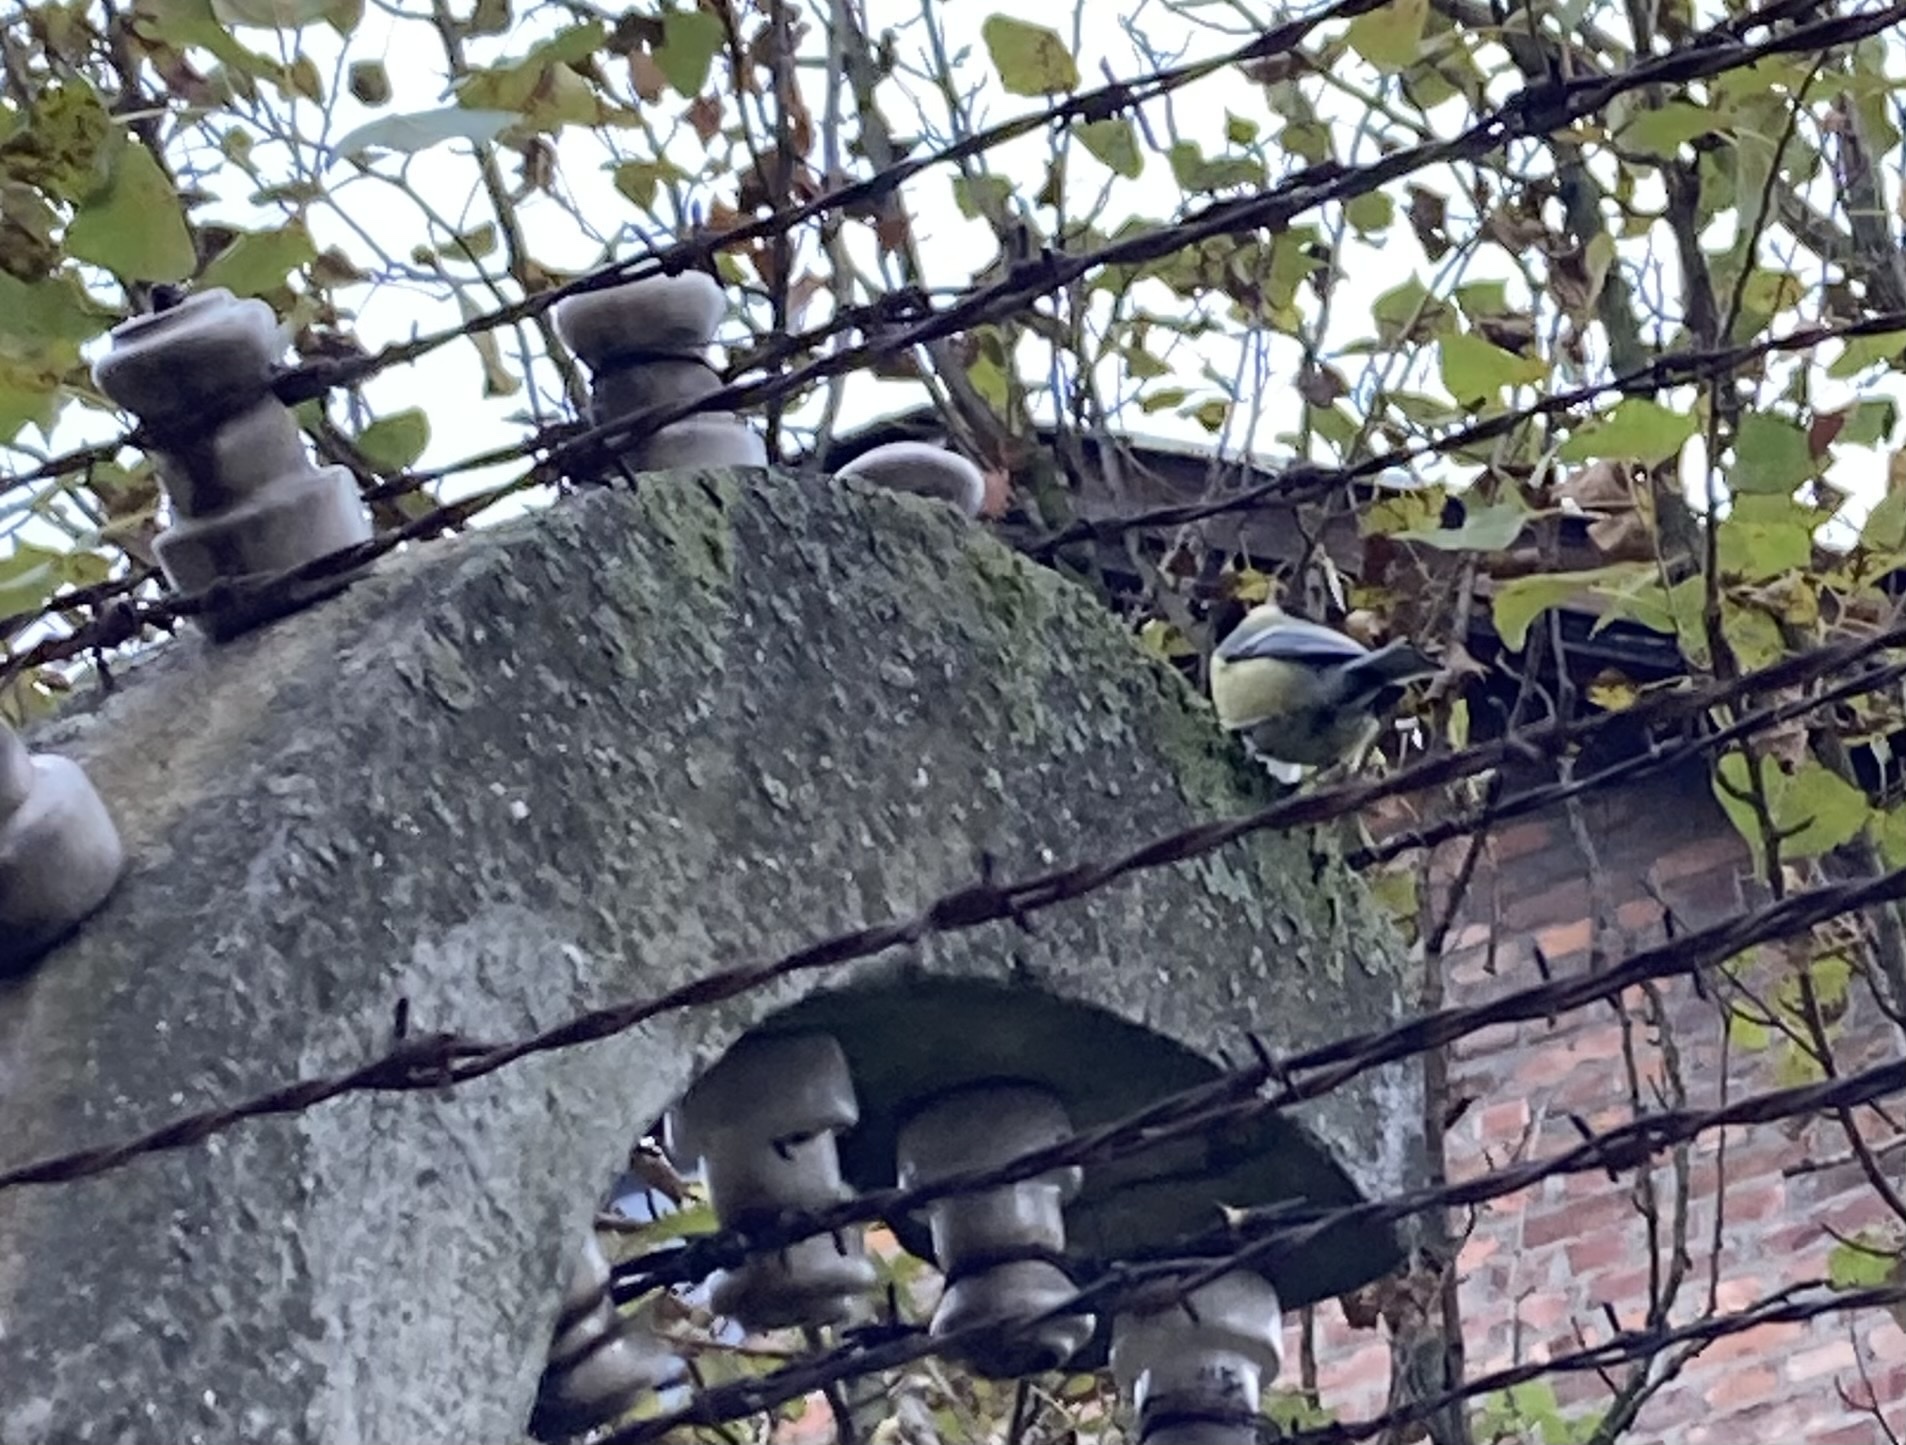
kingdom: Animalia
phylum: Chordata
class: Aves
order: Passeriformes
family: Paridae
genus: Parus
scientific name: Parus major
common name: Great tit
